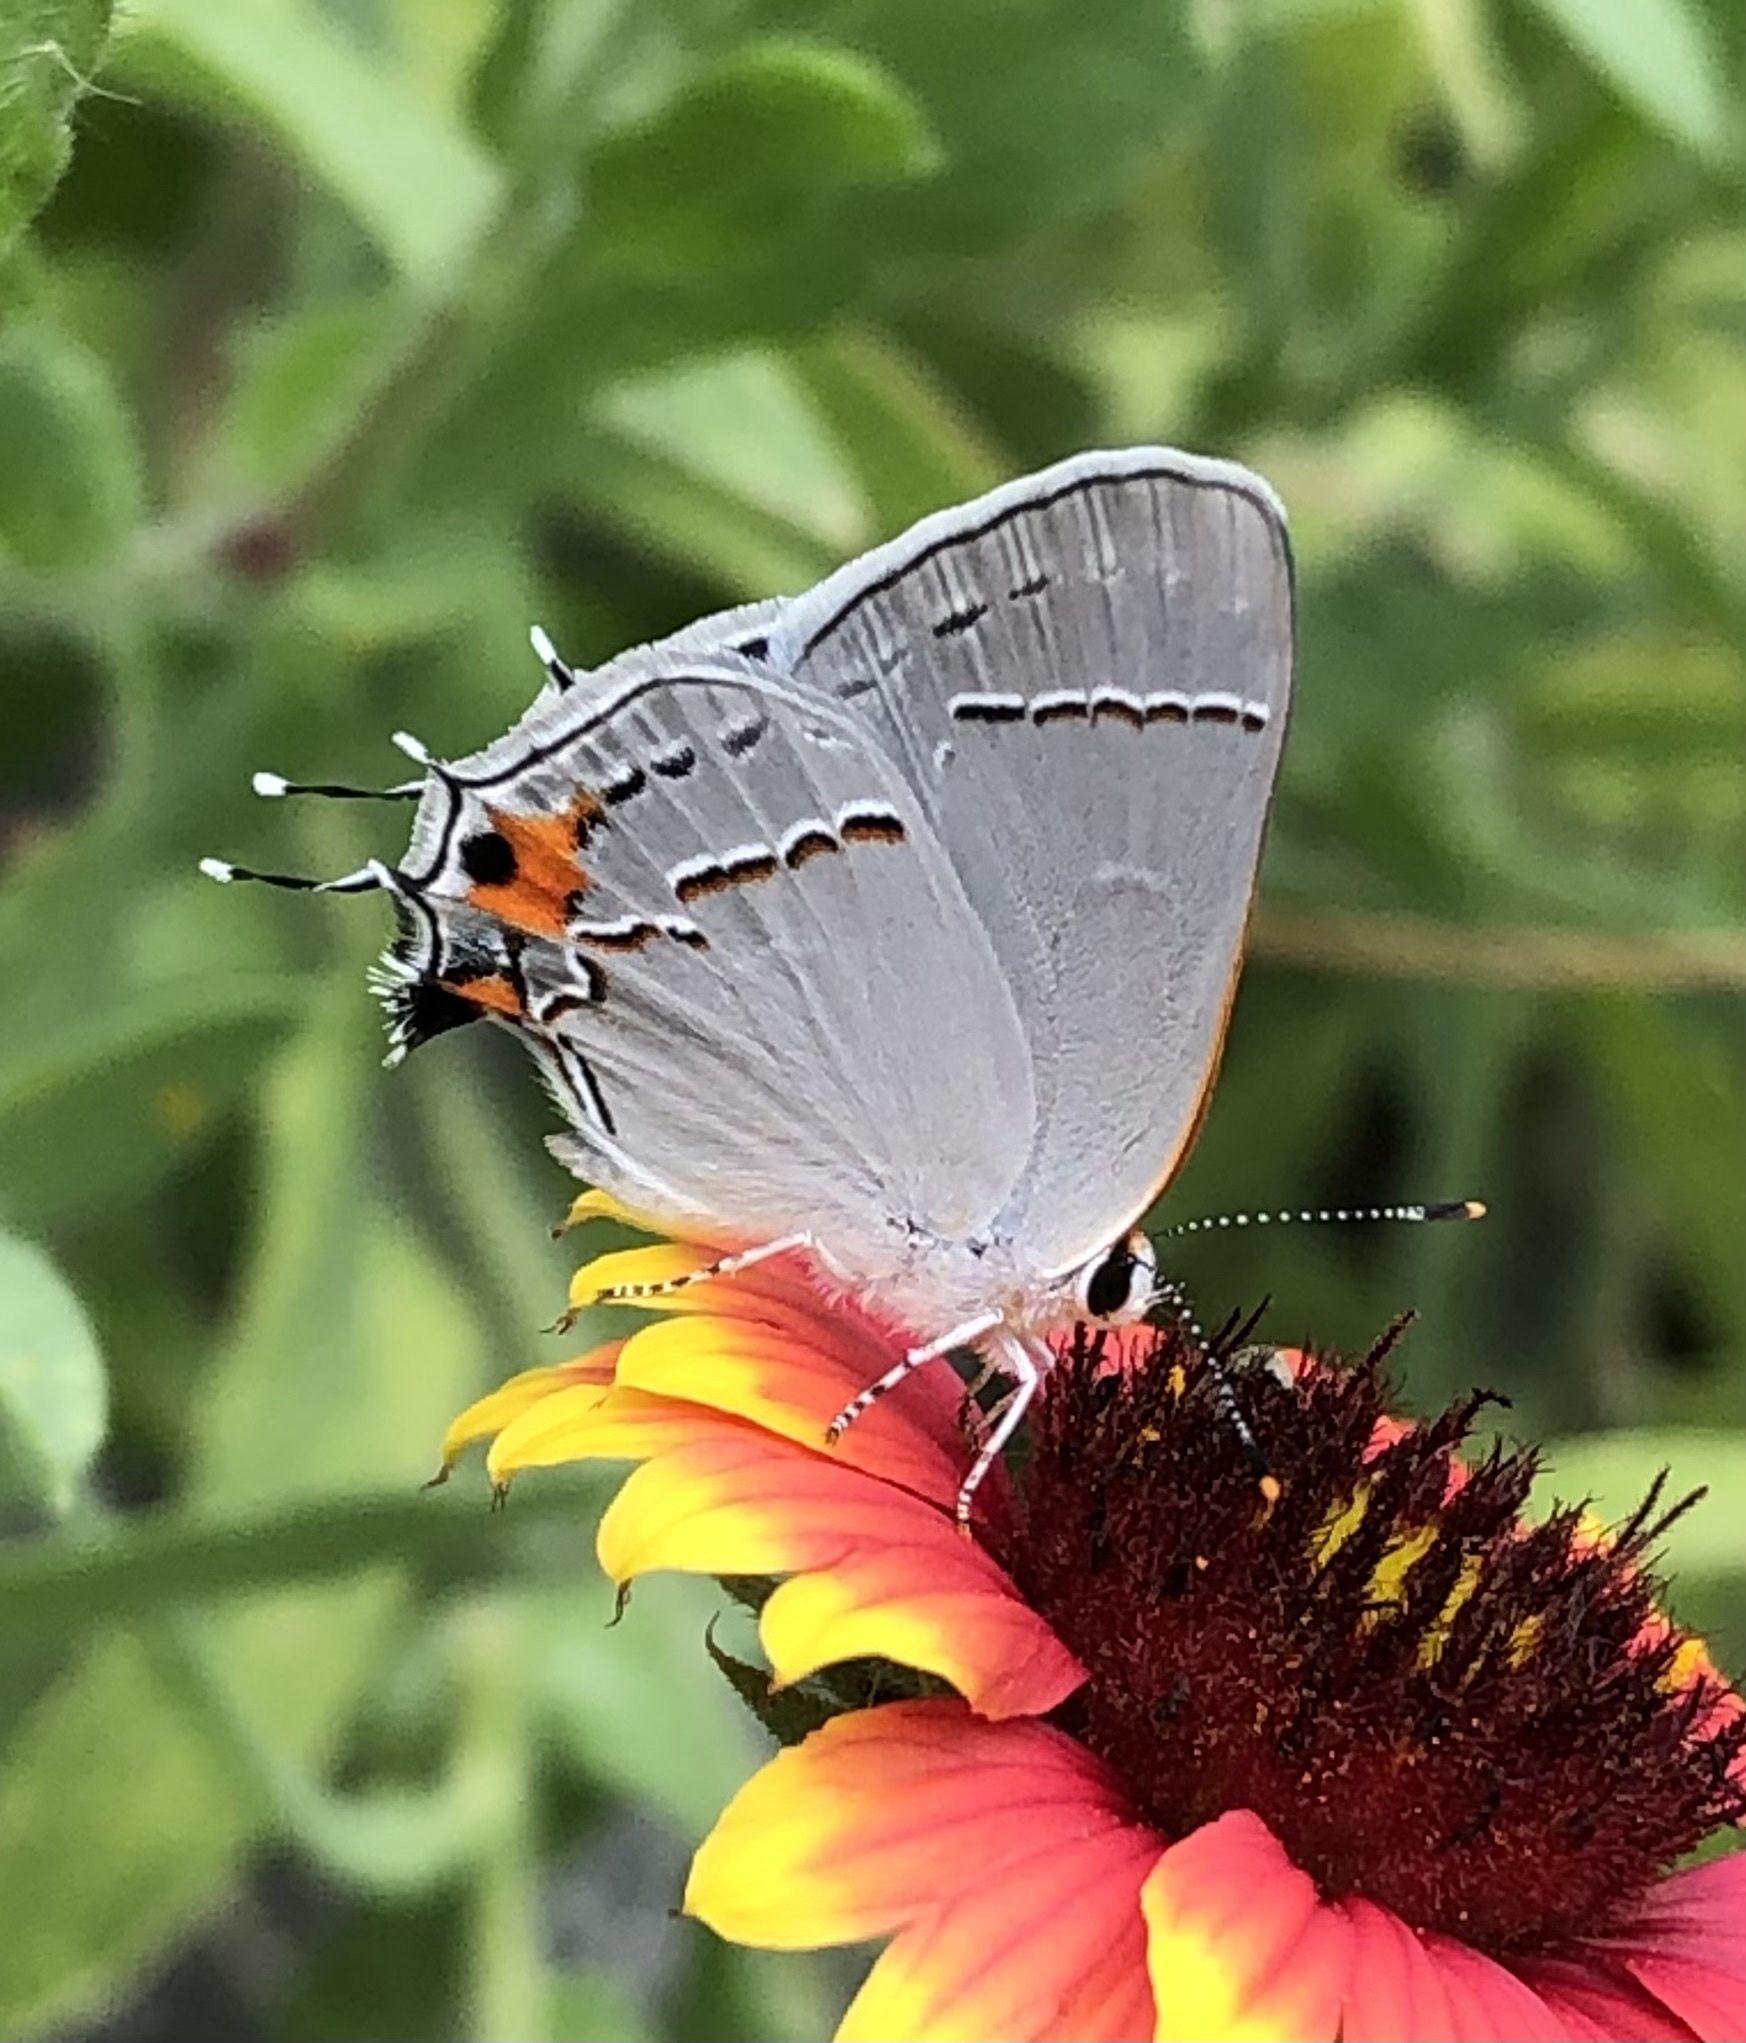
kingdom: Animalia
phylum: Arthropoda
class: Insecta
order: Lepidoptera
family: Lycaenidae
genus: Strymon
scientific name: Strymon melinus
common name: Gray hairstreak
